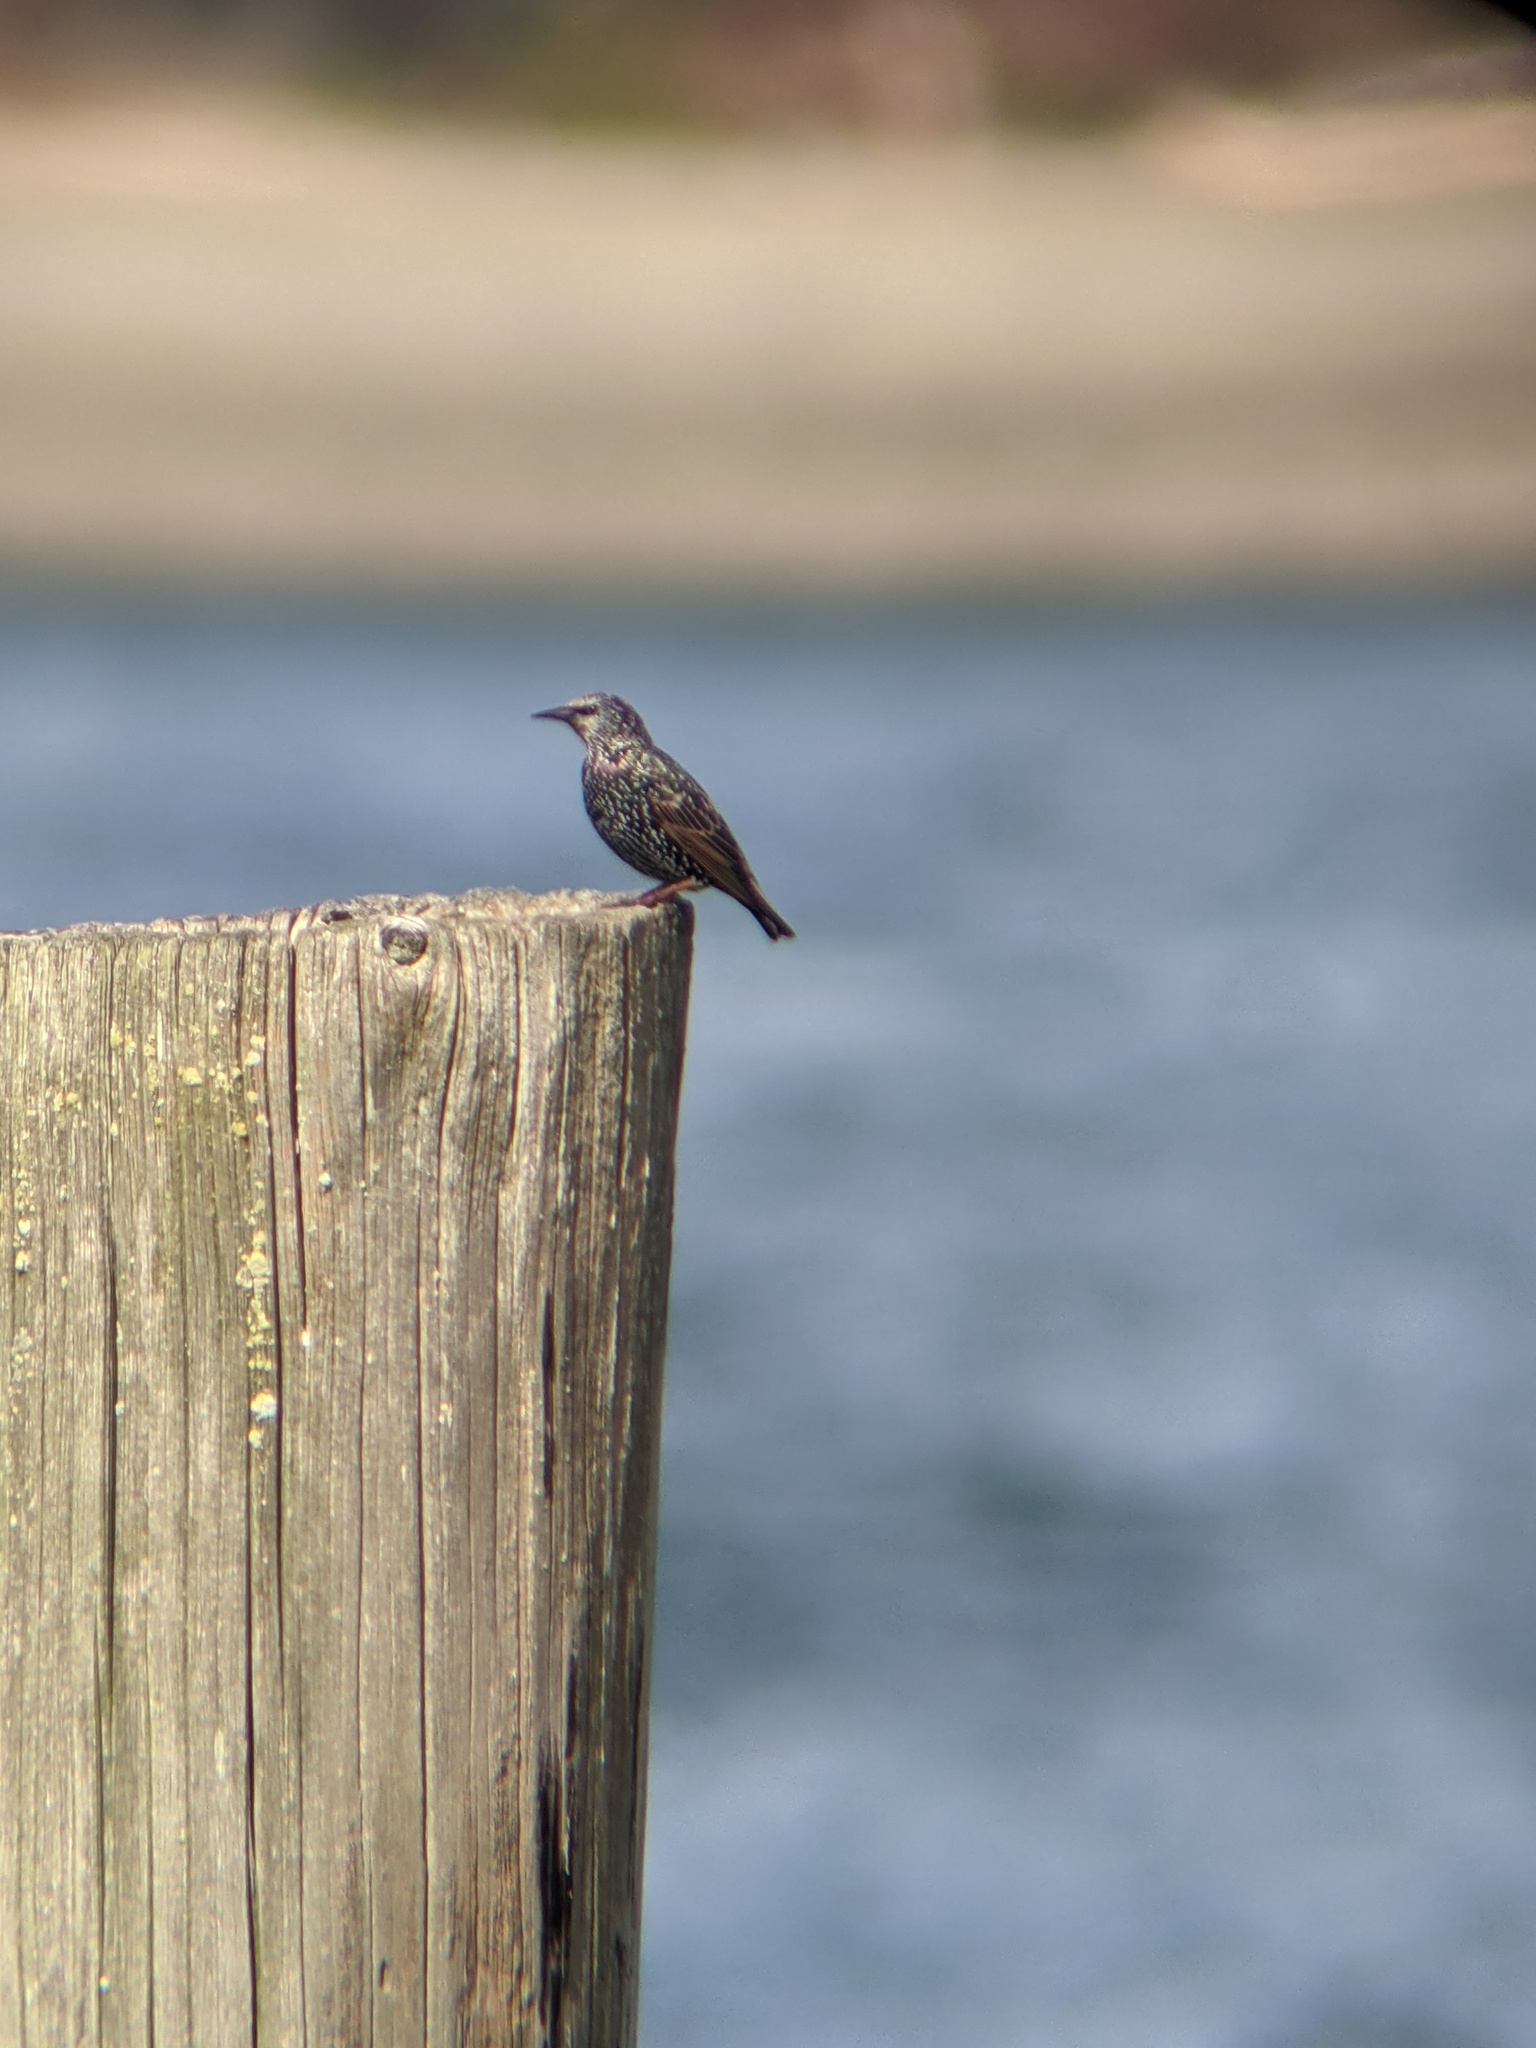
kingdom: Animalia
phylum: Chordata
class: Aves
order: Passeriformes
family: Sturnidae
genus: Sturnus
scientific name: Sturnus vulgaris
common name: Common starling
